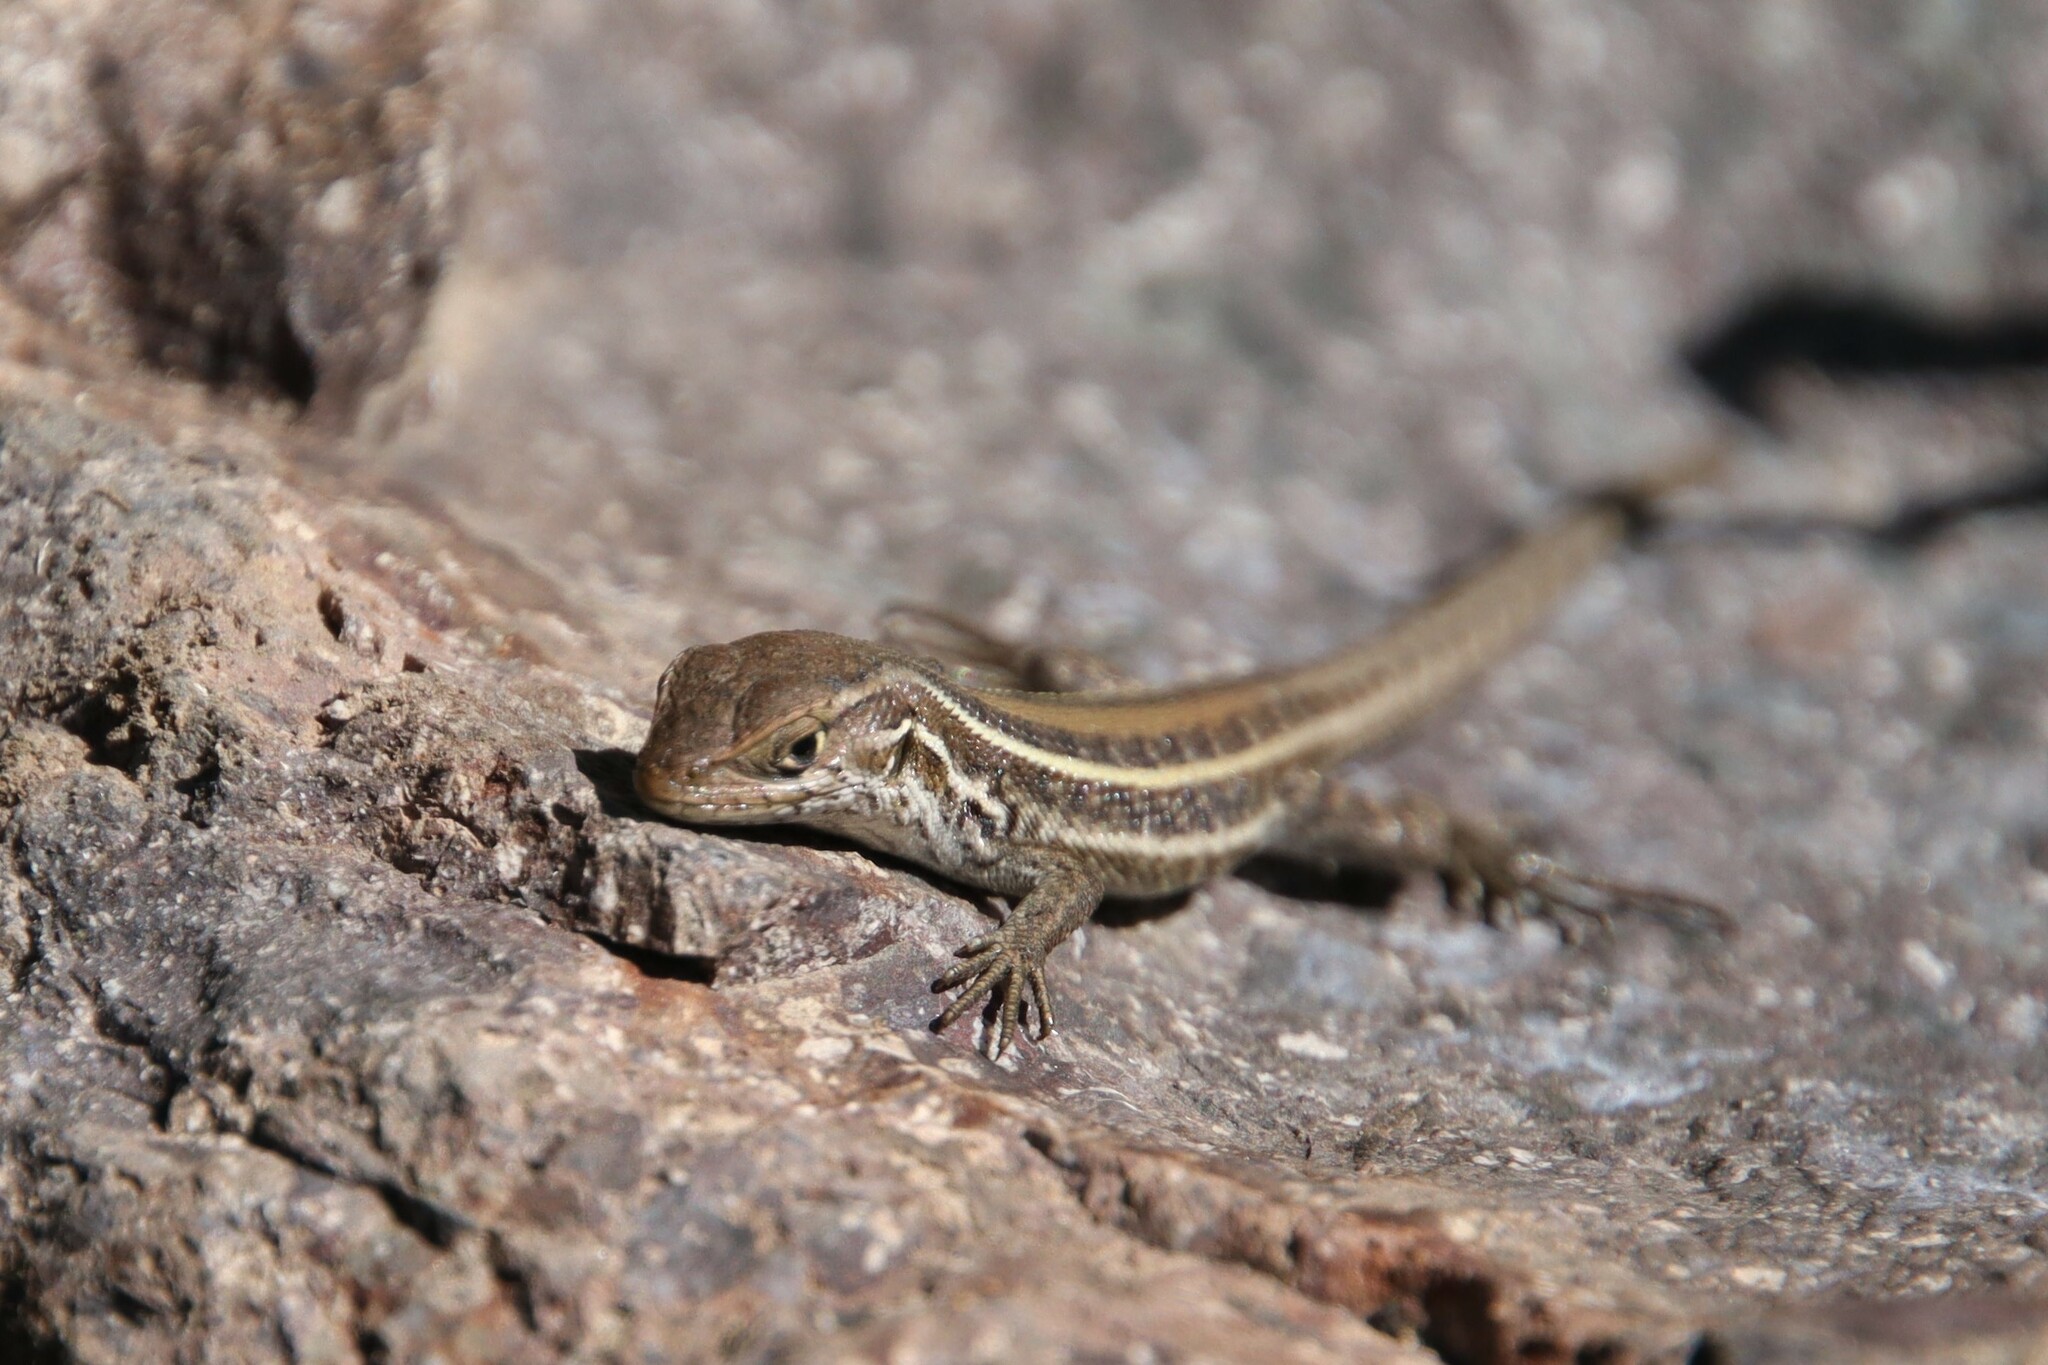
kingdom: Animalia
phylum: Chordata
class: Squamata
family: Liolaemidae
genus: Liolaemus
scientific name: Liolaemus lemniscatus
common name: Wreath tree iguana
